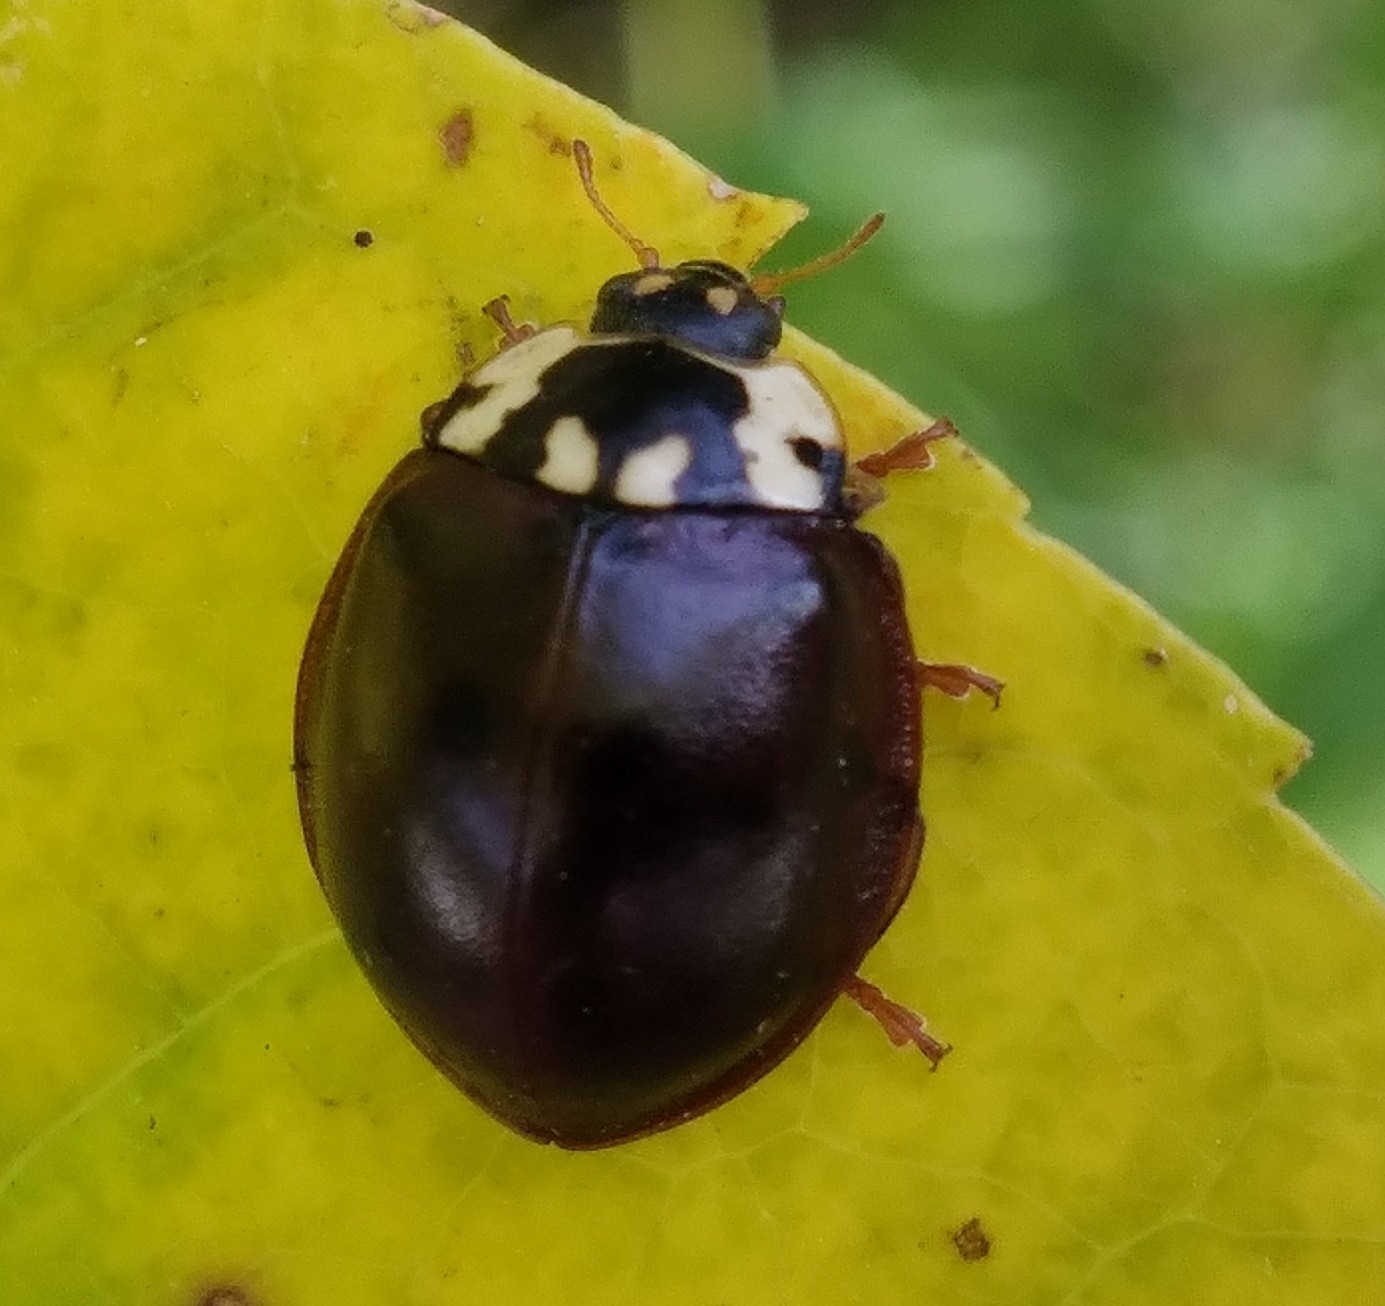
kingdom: Animalia
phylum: Arthropoda
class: Insecta
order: Coleoptera
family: Coccinellidae
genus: Anatis
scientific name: Anatis labiculata
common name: Fifteen-spotted lady beetle
